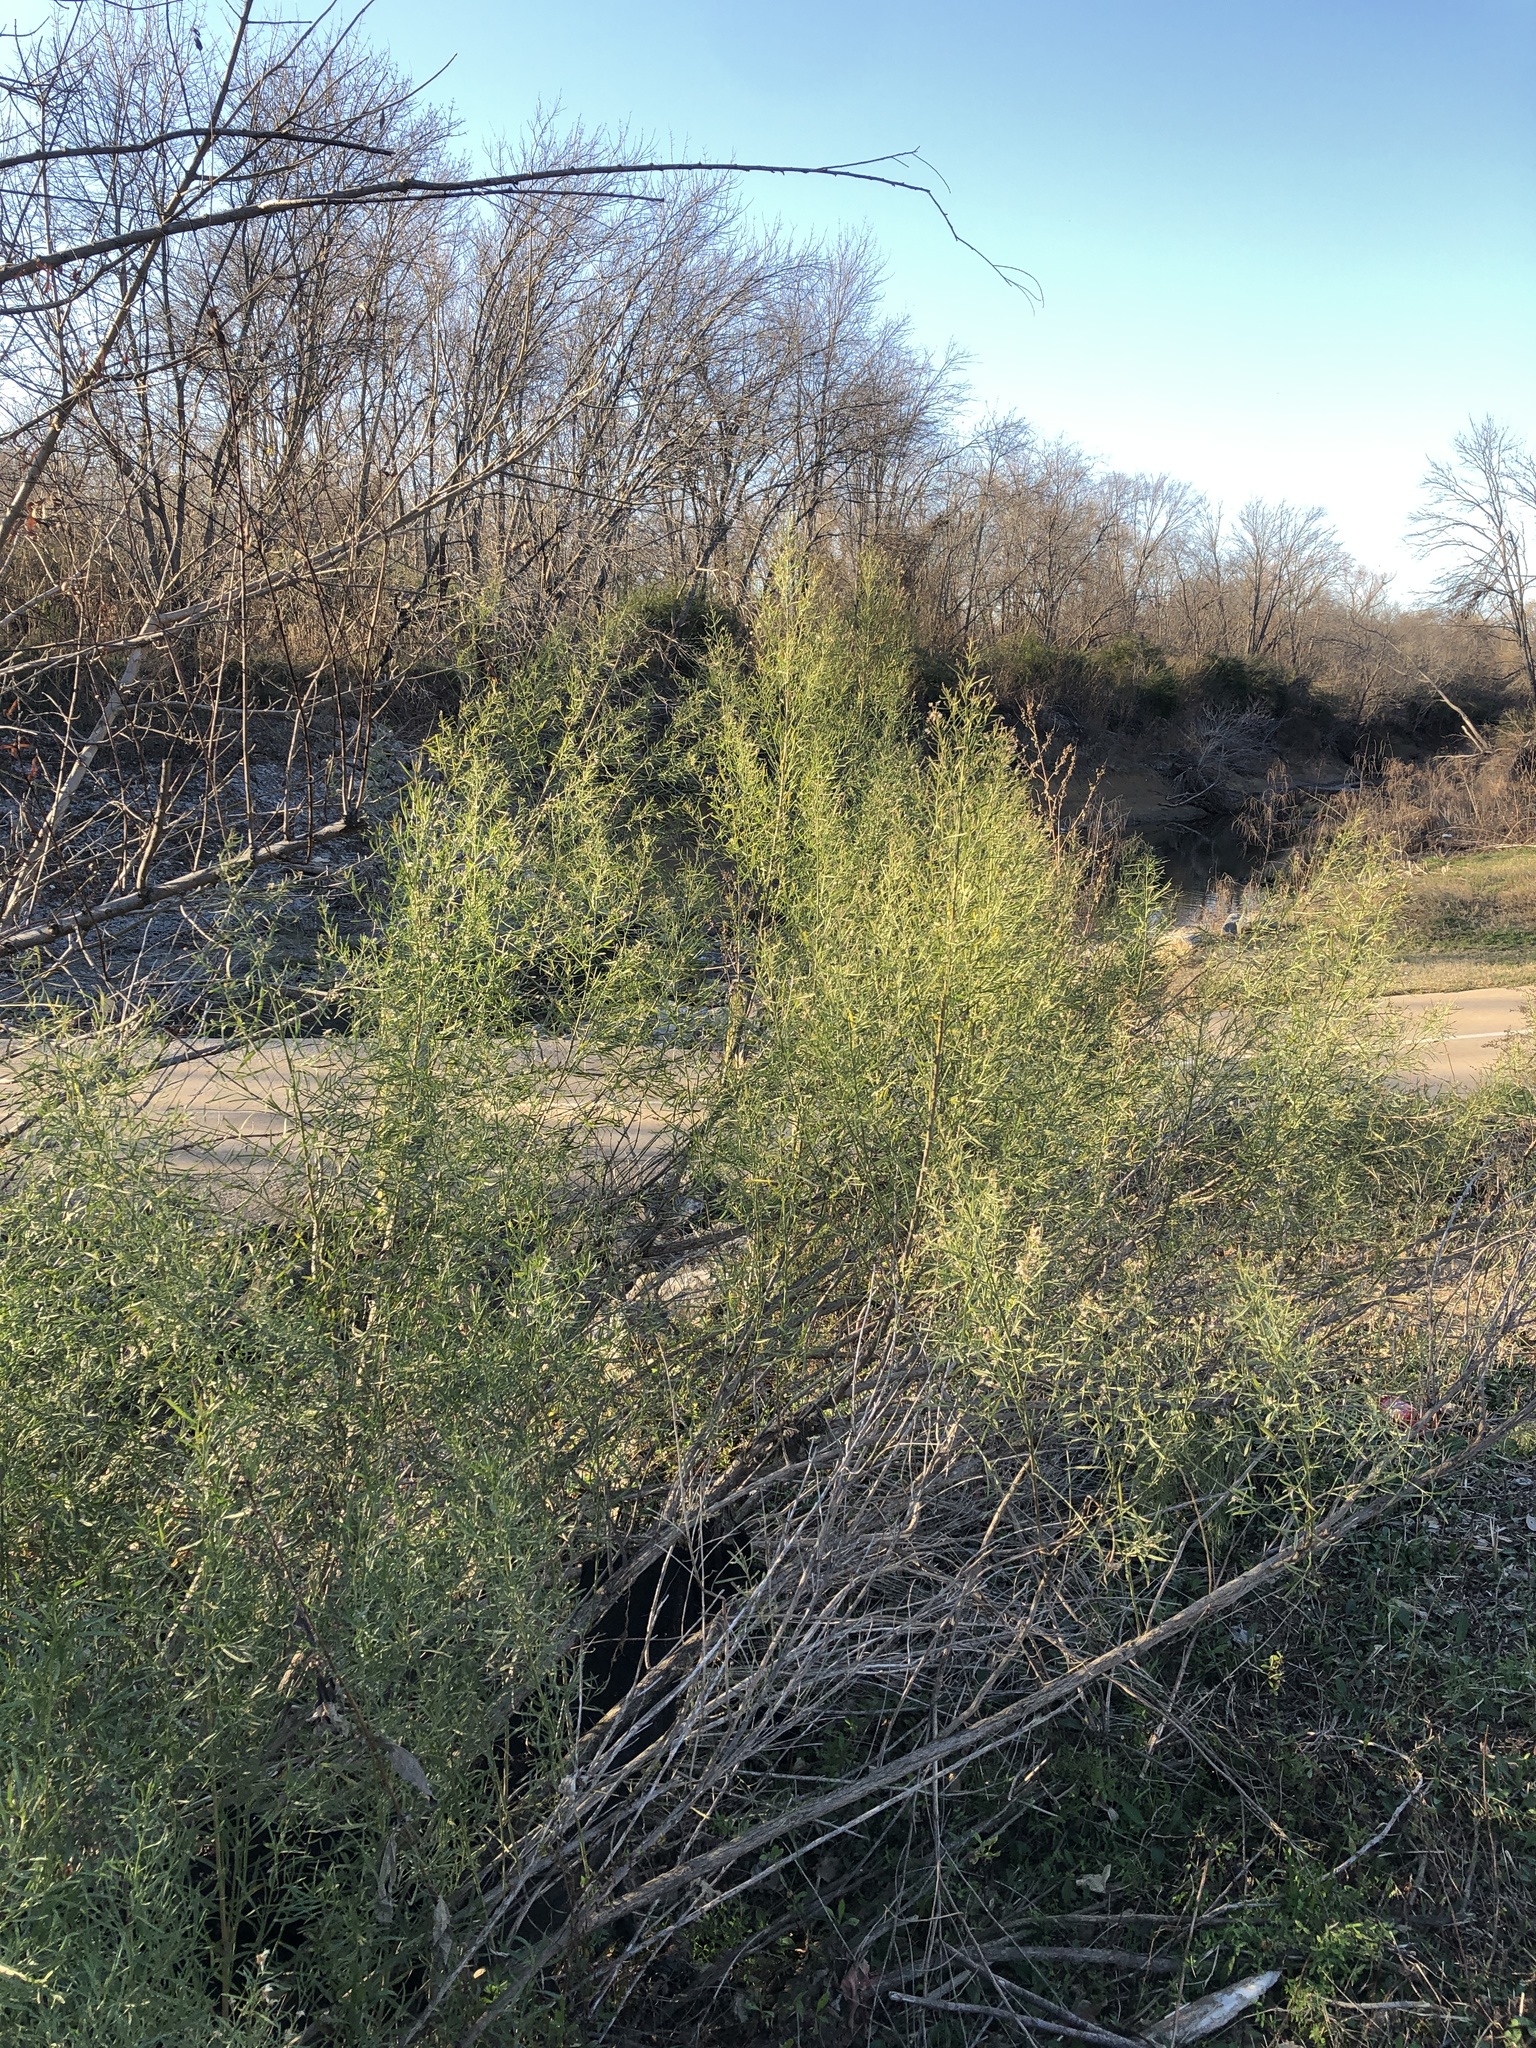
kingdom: Plantae
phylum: Tracheophyta
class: Magnoliopsida
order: Asterales
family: Asteraceae
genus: Baccharis
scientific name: Baccharis neglecta
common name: Roosevelt-weed
